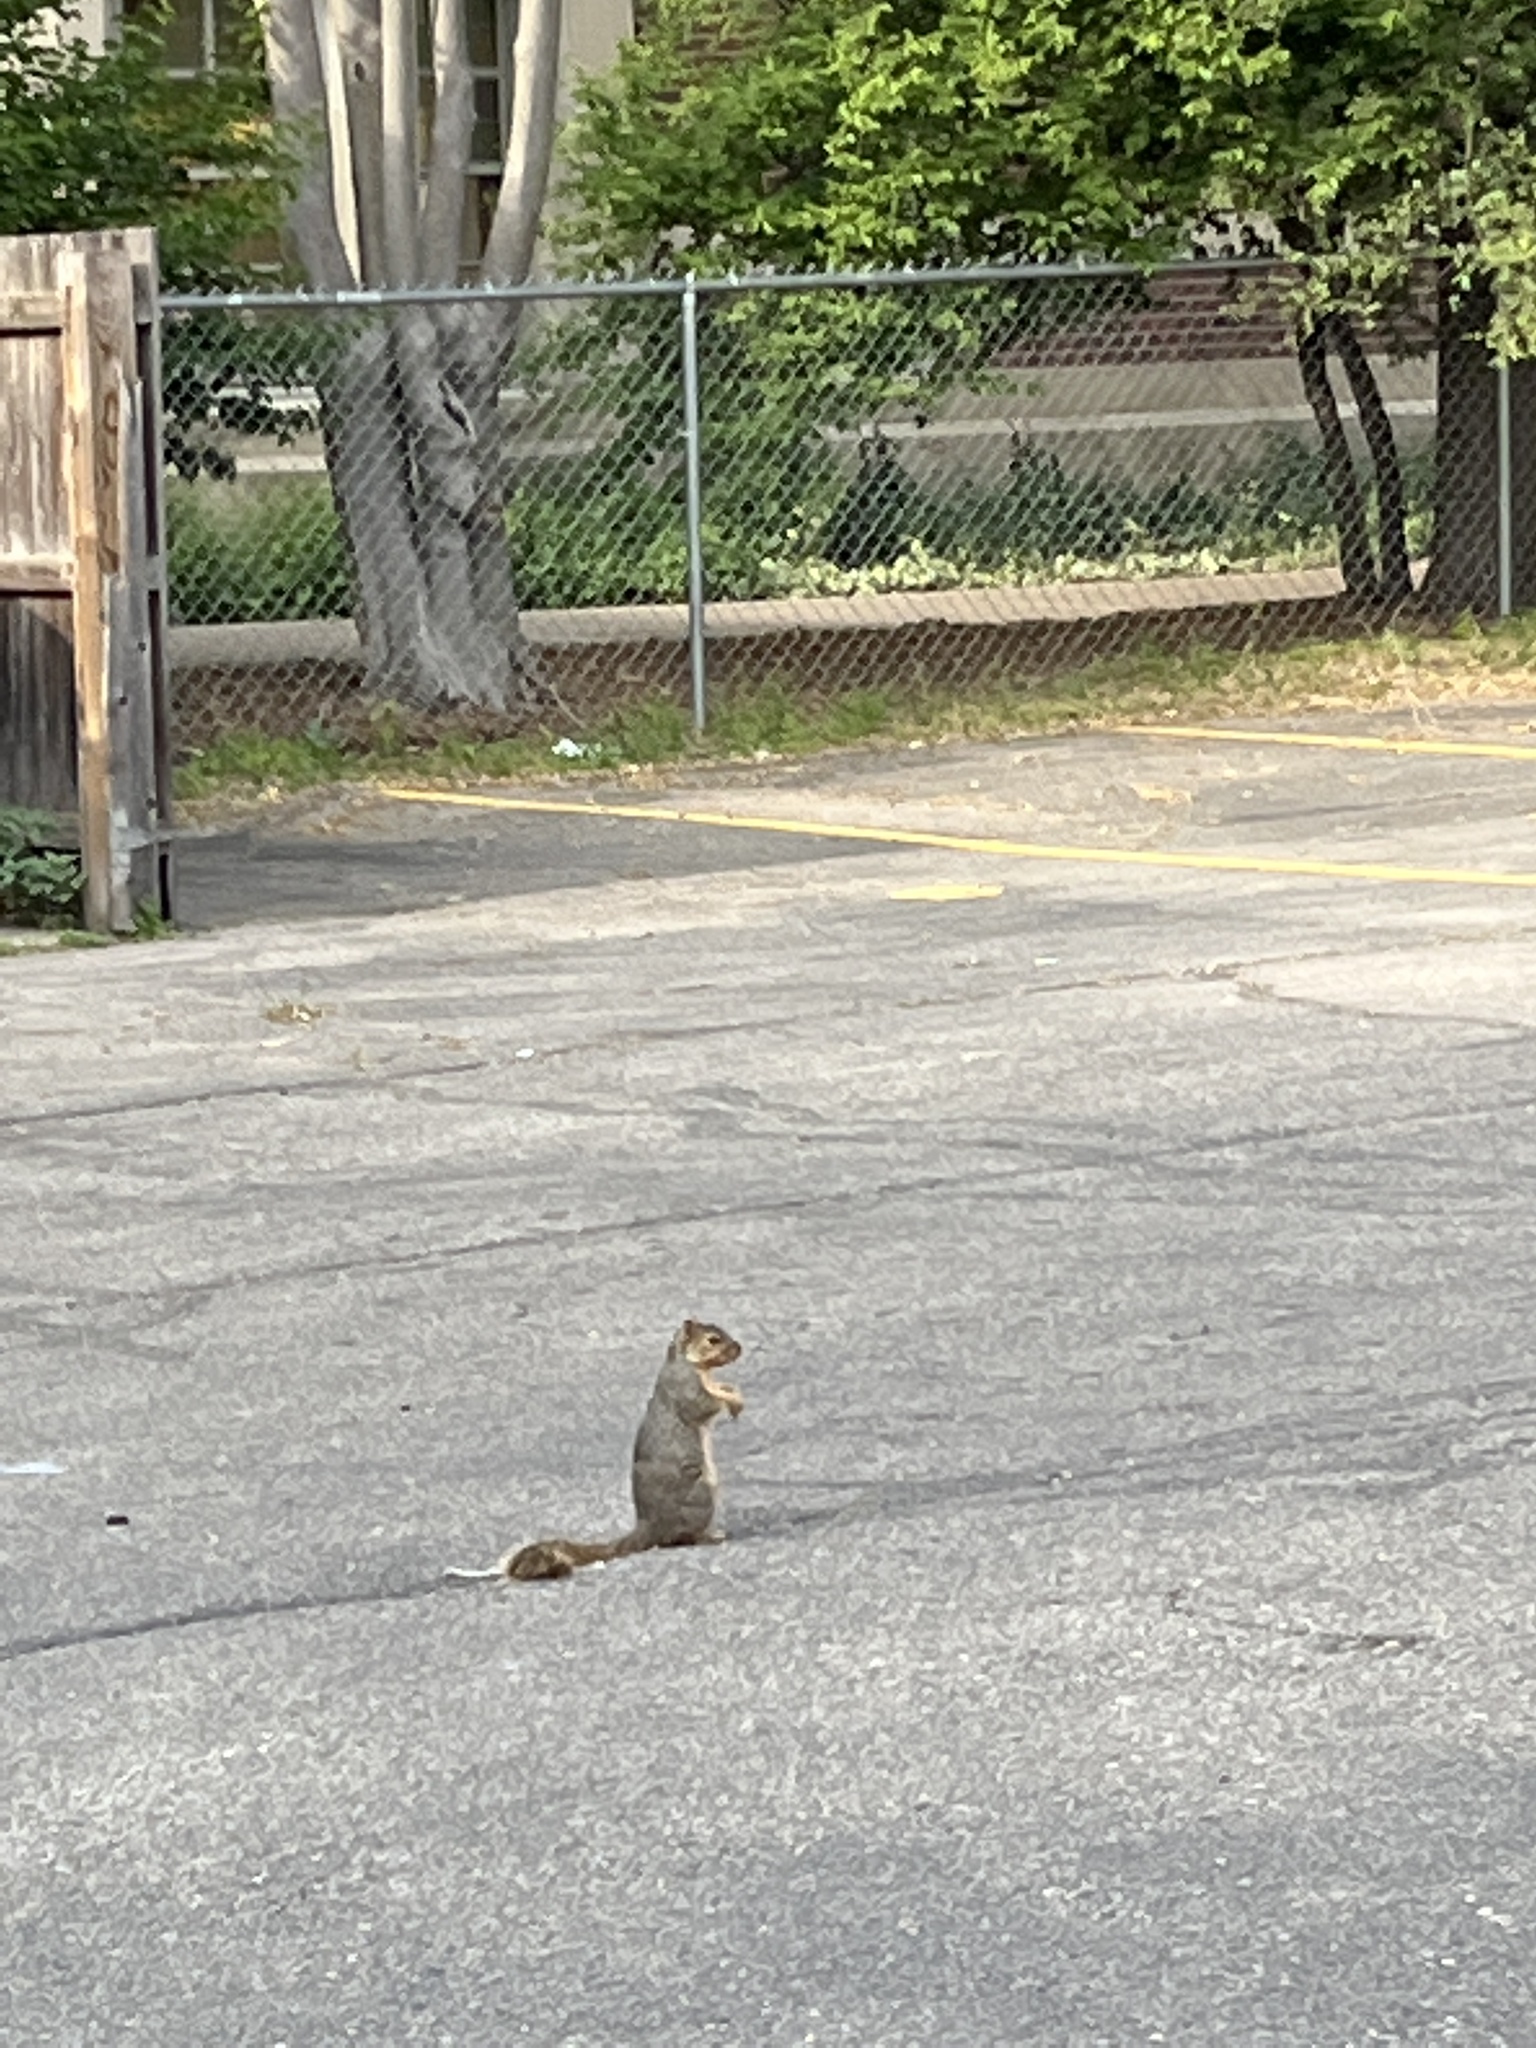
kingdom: Animalia
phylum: Chordata
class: Mammalia
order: Rodentia
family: Sciuridae
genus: Sciurus
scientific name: Sciurus niger
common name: Fox squirrel
